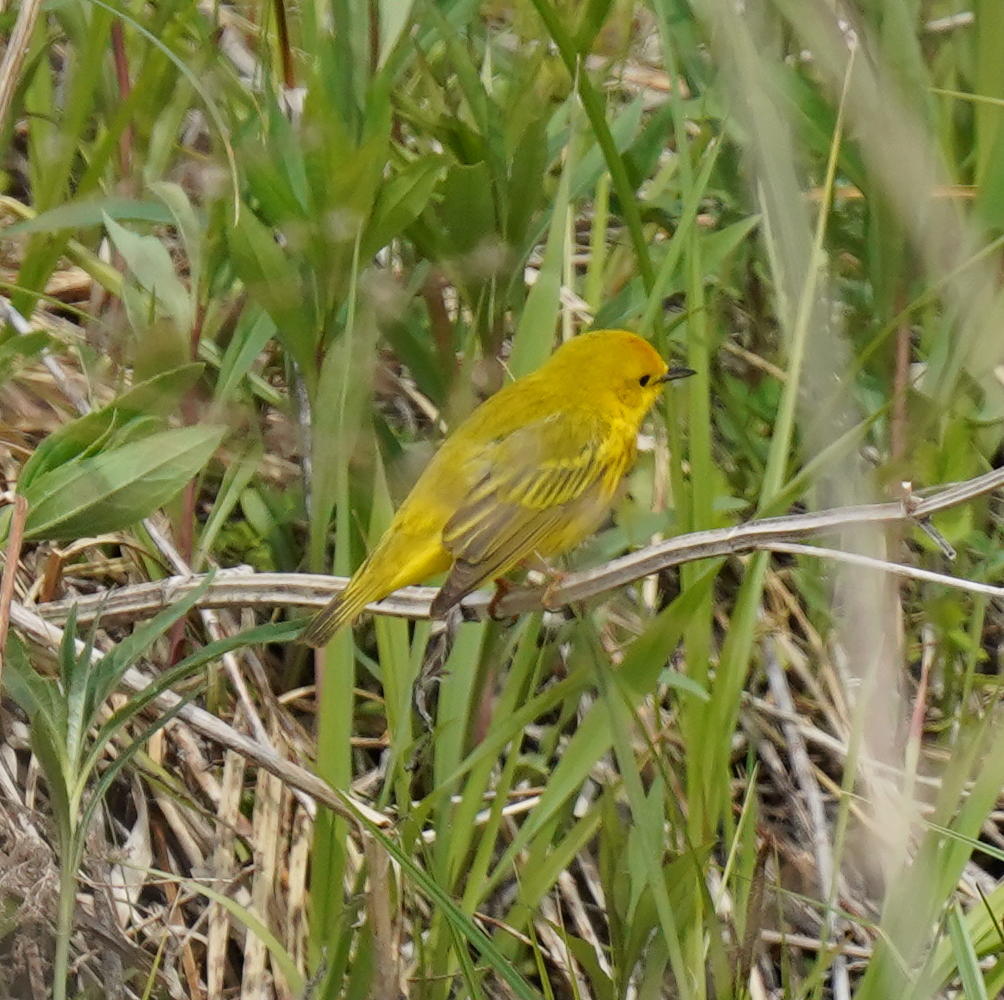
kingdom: Animalia
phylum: Chordata
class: Aves
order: Passeriformes
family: Parulidae
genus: Setophaga
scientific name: Setophaga petechia
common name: Yellow warbler
